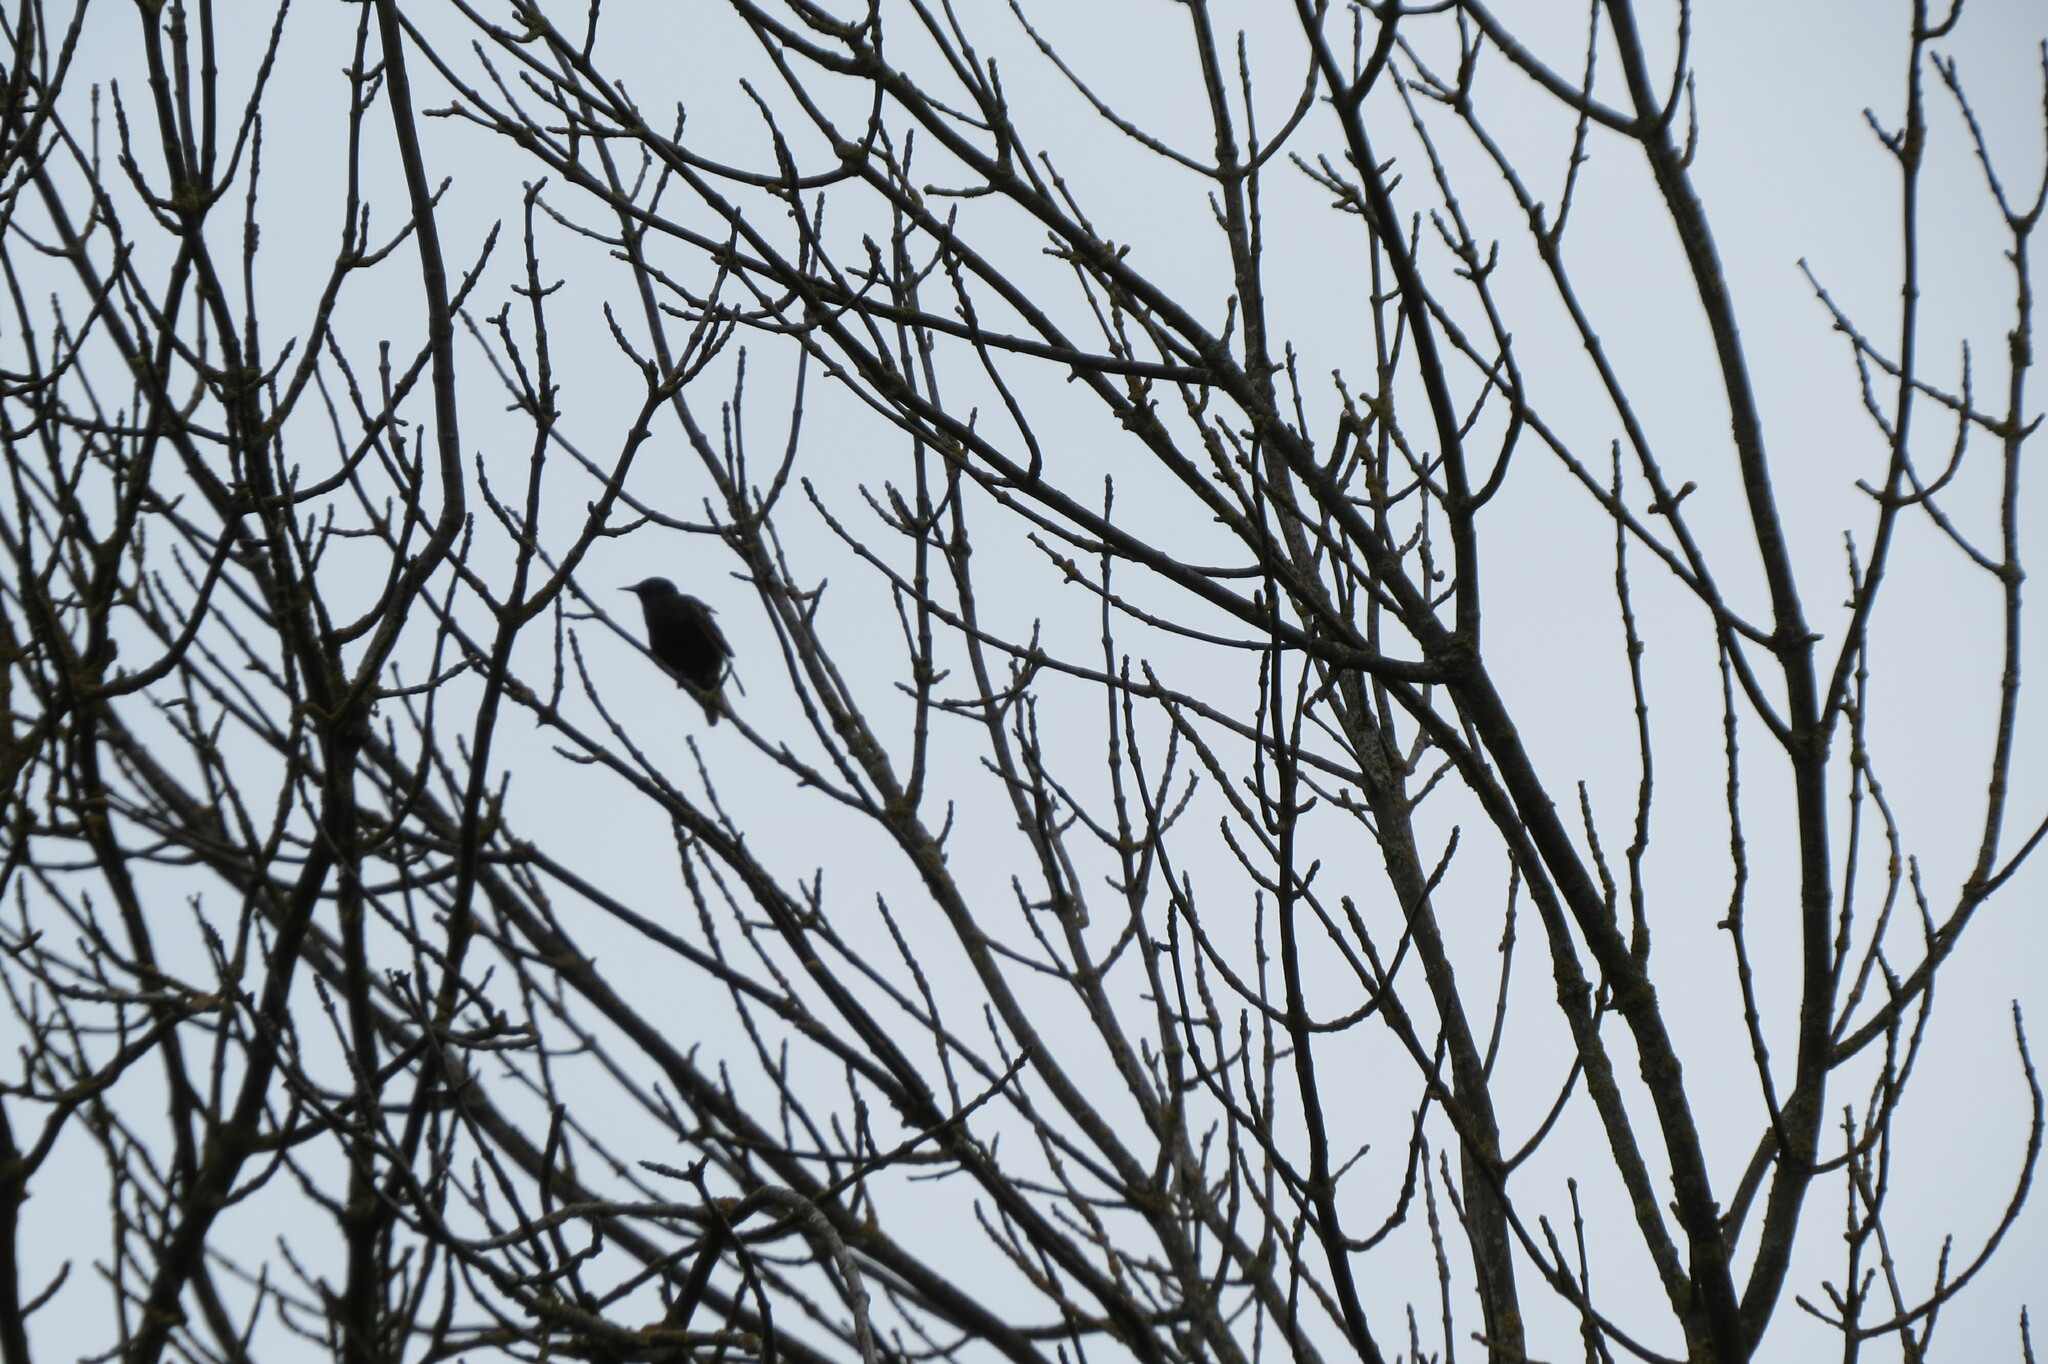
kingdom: Animalia
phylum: Chordata
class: Aves
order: Passeriformes
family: Sturnidae
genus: Sturnus
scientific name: Sturnus vulgaris
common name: Common starling
